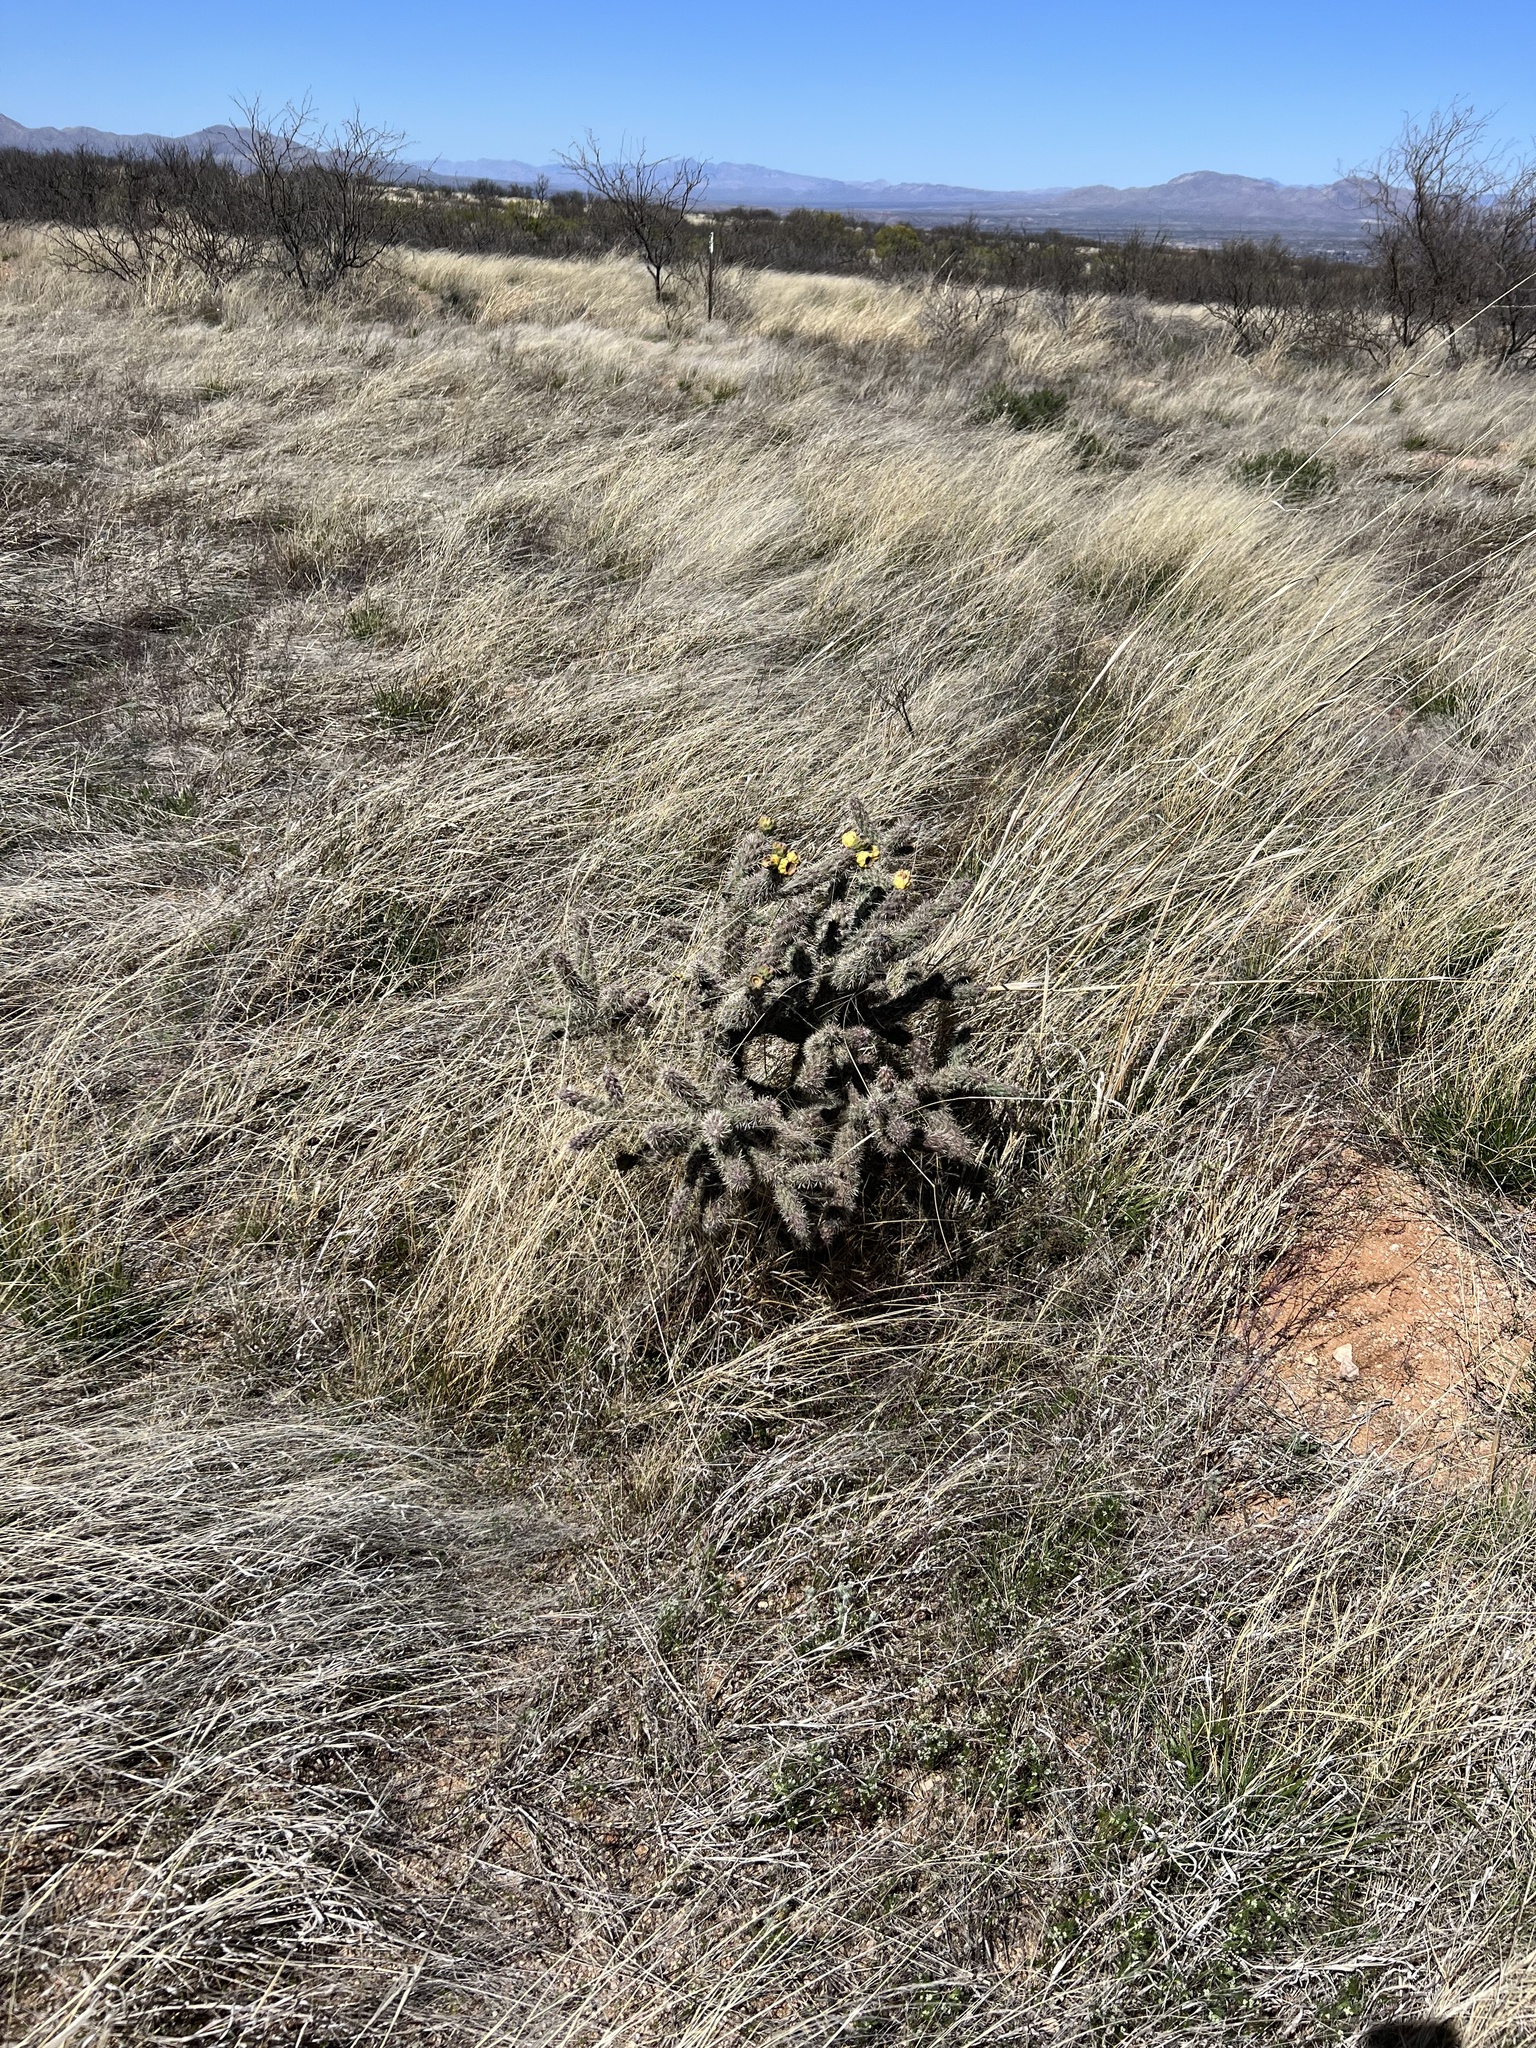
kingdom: Plantae
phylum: Tracheophyta
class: Magnoliopsida
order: Caryophyllales
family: Cactaceae
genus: Cylindropuntia
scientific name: Cylindropuntia imbricata
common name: Candelabrum cactus
